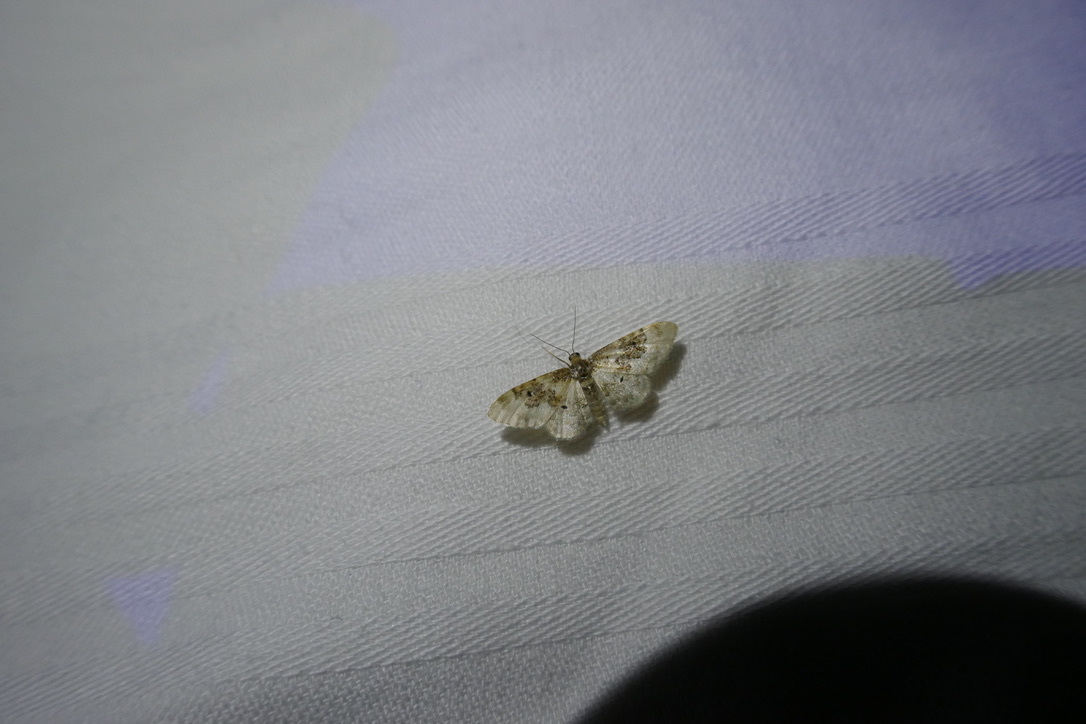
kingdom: Animalia
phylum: Arthropoda
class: Insecta
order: Lepidoptera
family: Geometridae
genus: Idaea
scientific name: Idaea rusticata
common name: Least carpet
